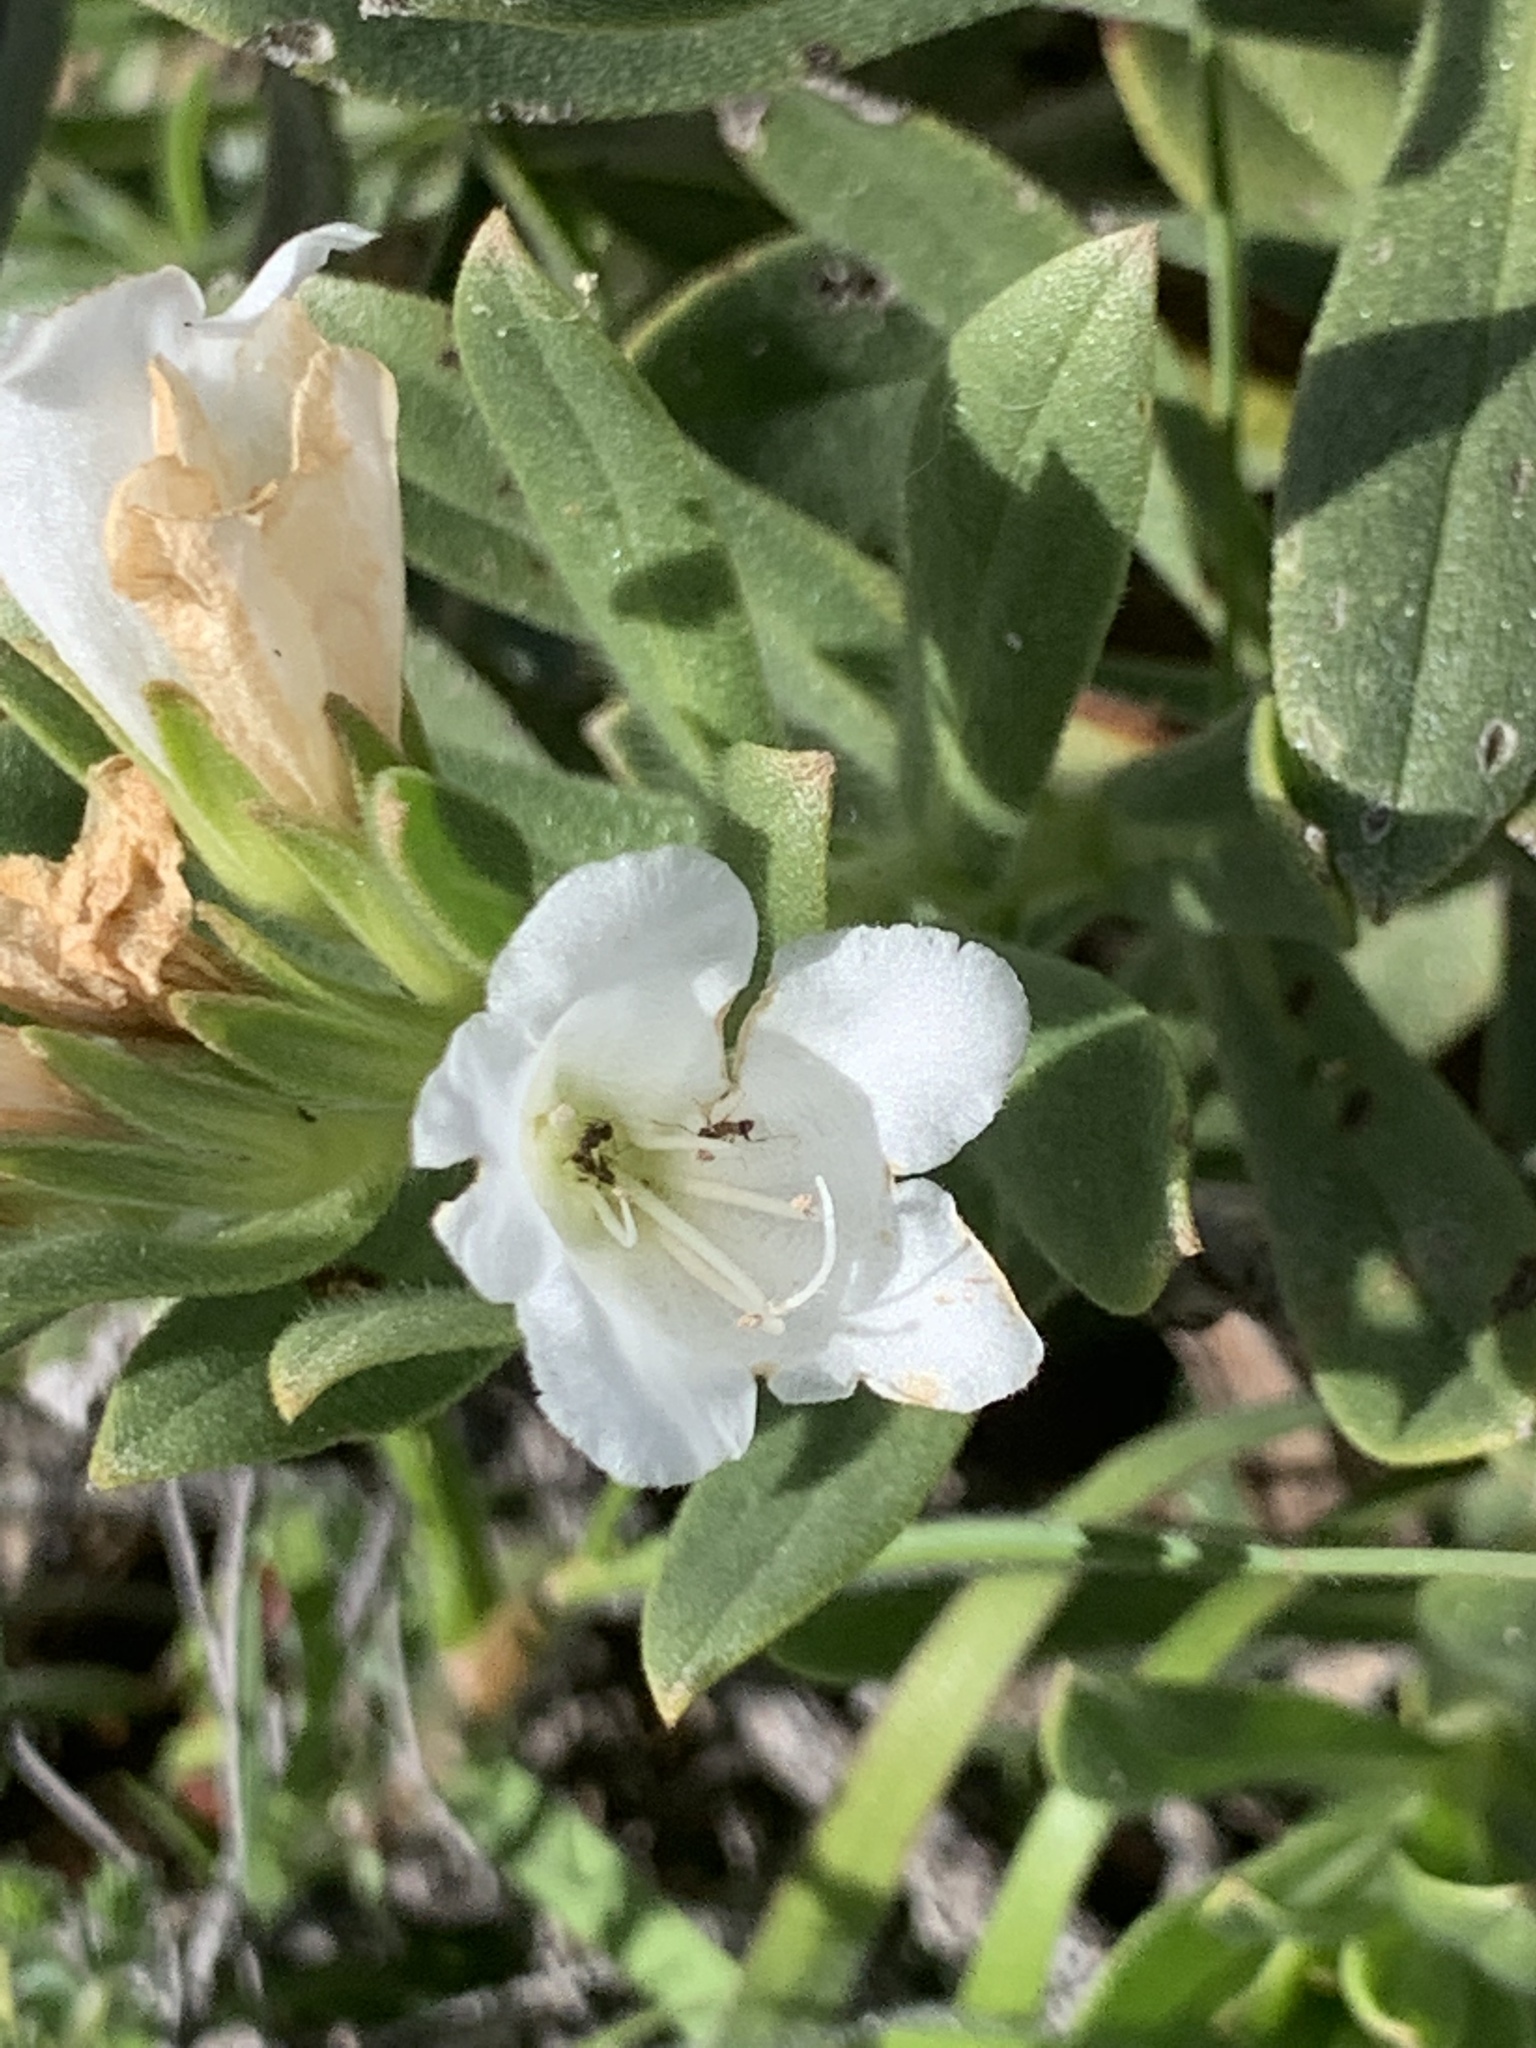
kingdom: Plantae
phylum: Tracheophyta
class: Magnoliopsida
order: Boraginales
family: Boraginaceae
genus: Lobostemon
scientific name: Lobostemon fruticosus
